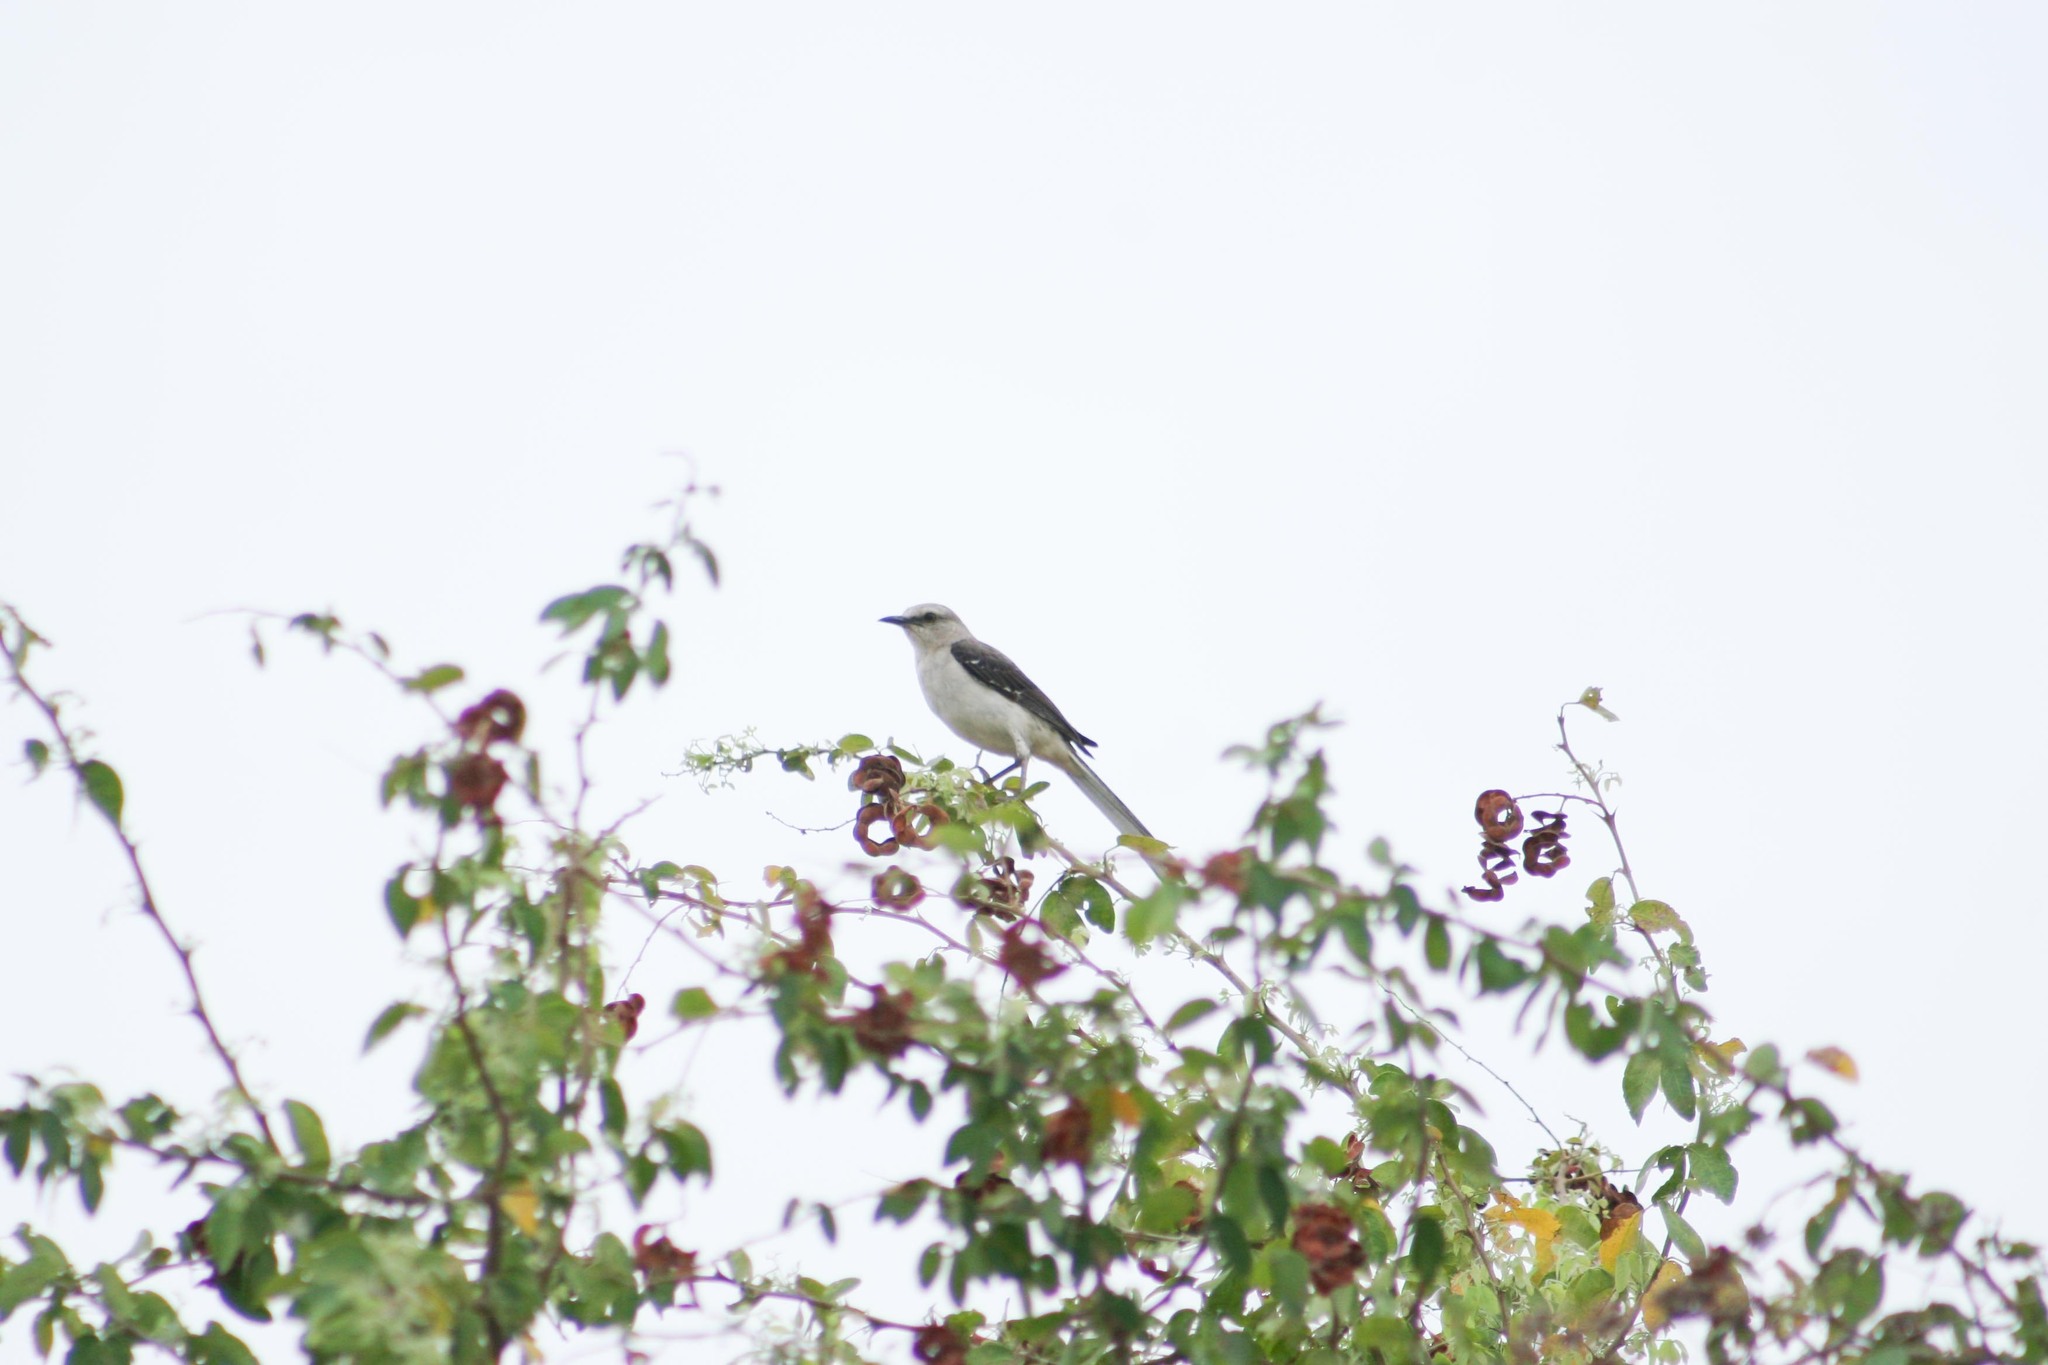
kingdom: Animalia
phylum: Chordata
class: Aves
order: Passeriformes
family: Mimidae
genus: Mimus
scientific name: Mimus gilvus
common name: Tropical mockingbird
